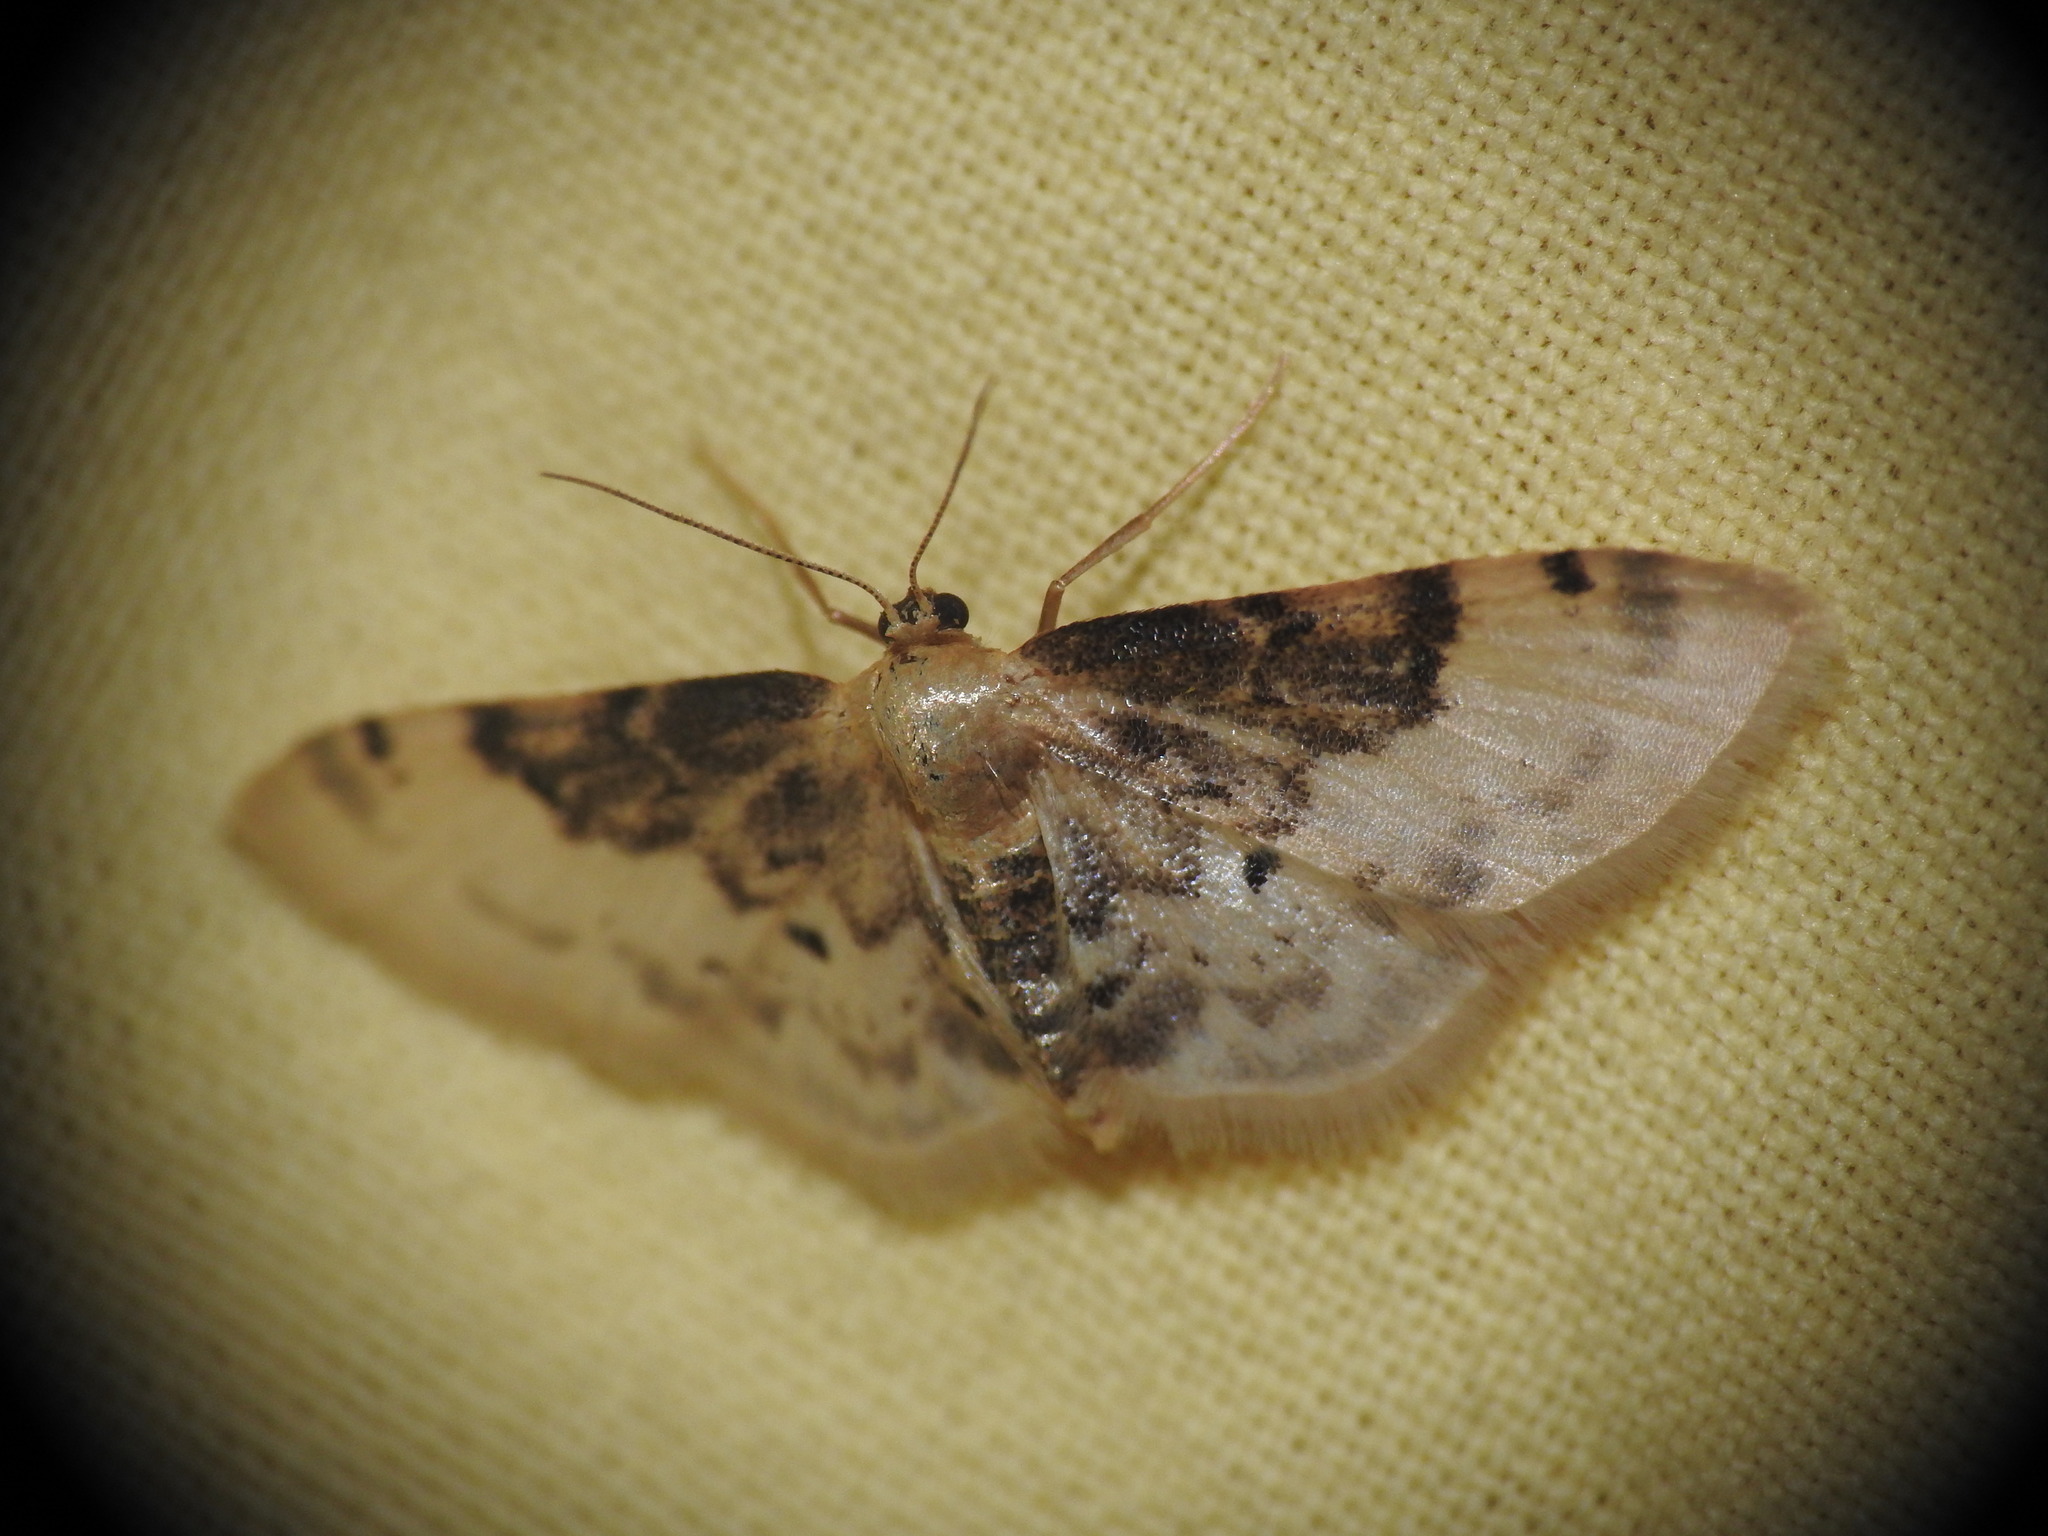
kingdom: Animalia
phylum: Arthropoda
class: Insecta
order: Lepidoptera
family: Geometridae
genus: Idaea
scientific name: Idaea filicata
